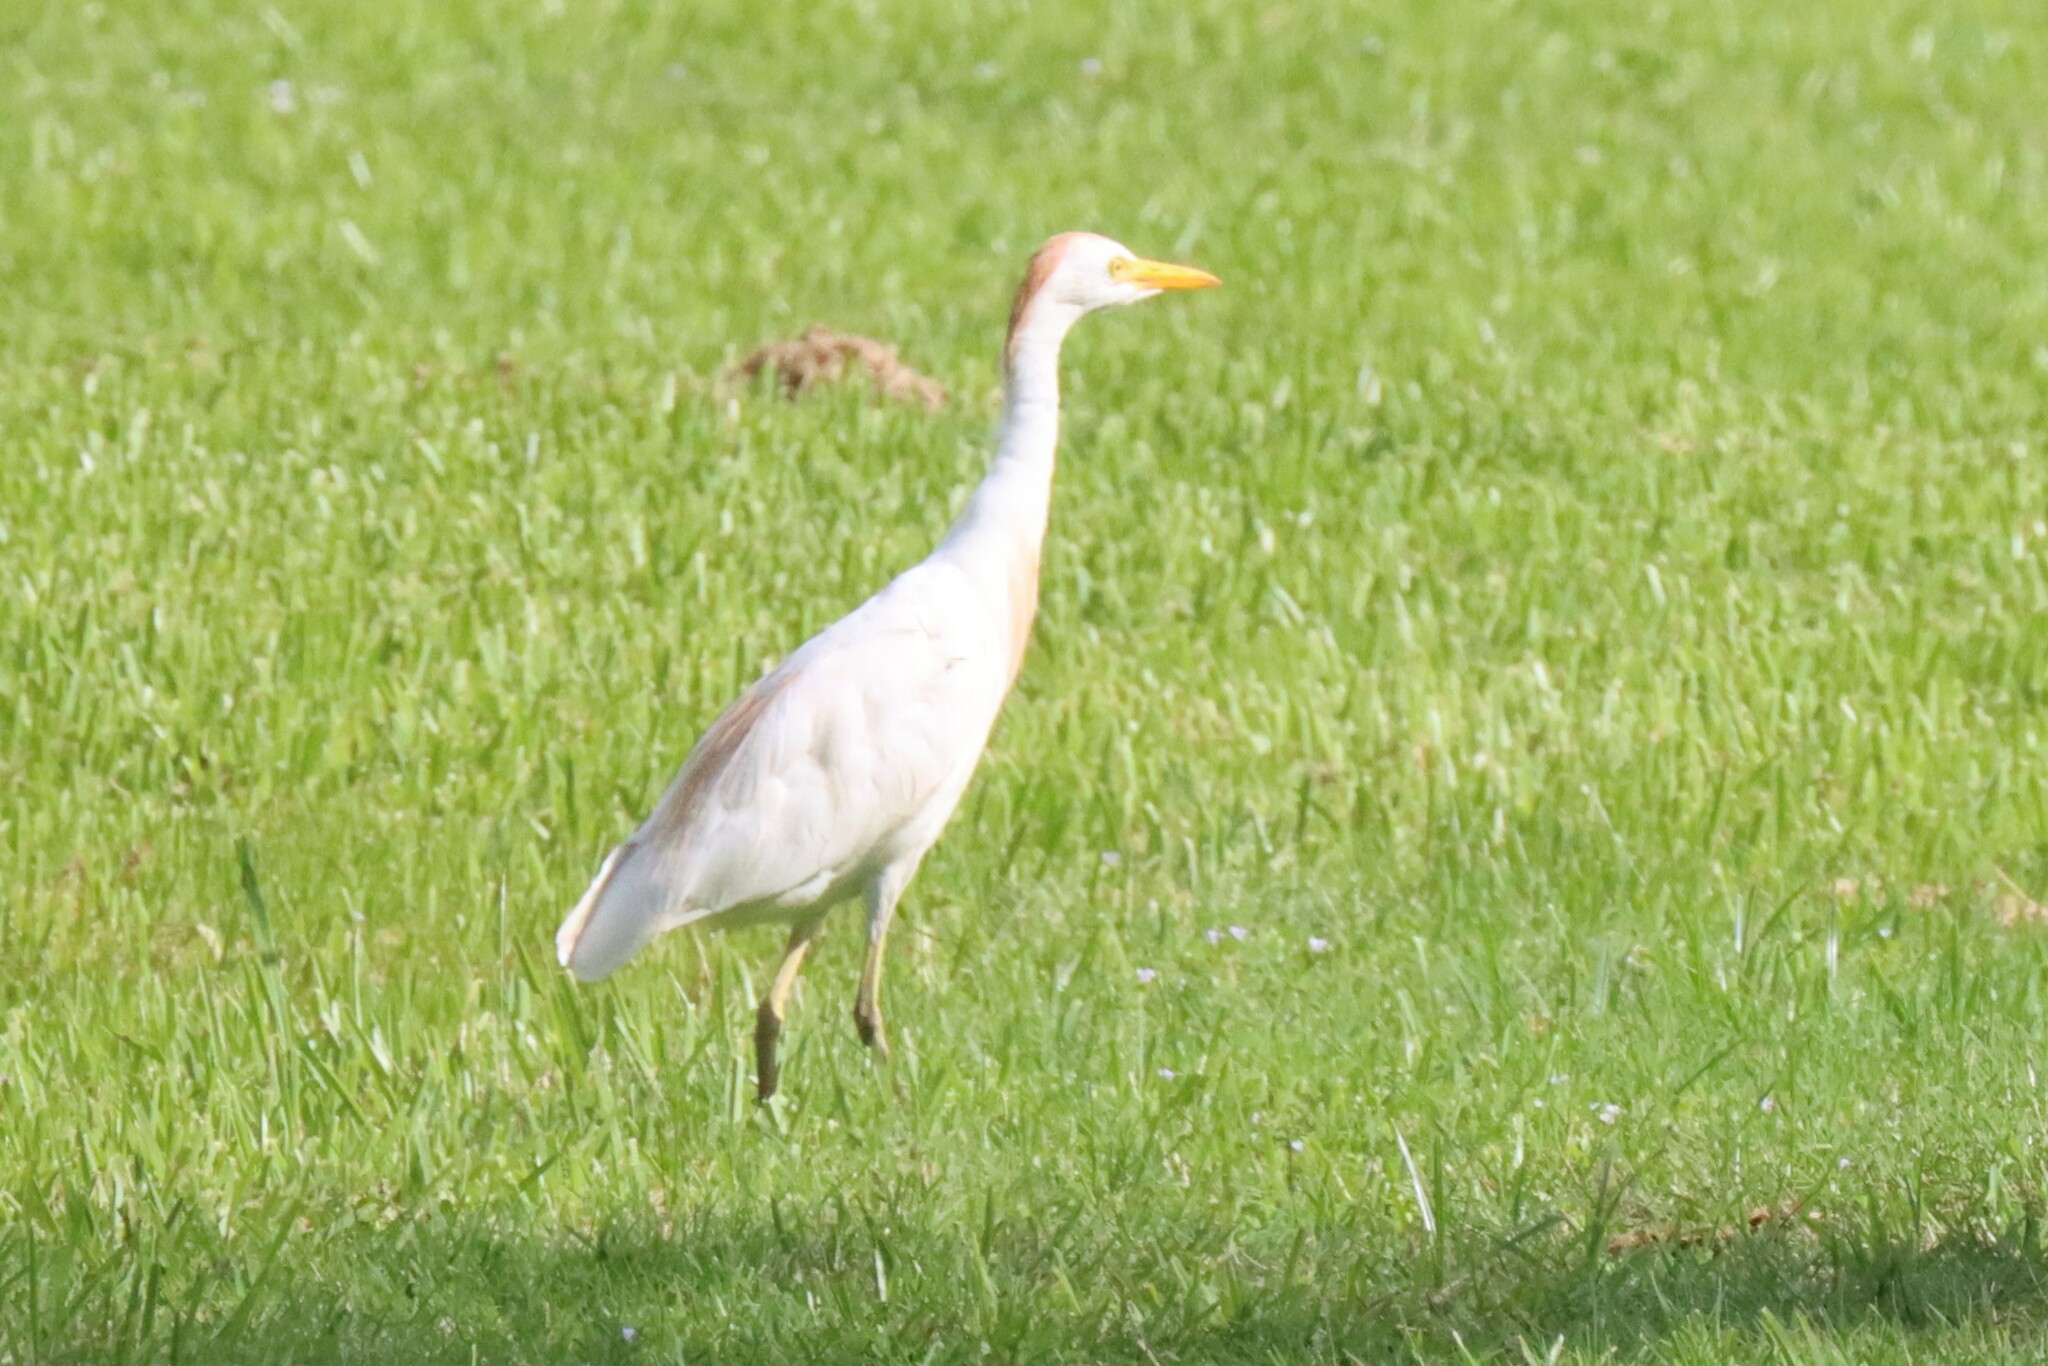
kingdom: Animalia
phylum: Chordata
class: Aves
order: Pelecaniformes
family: Ardeidae
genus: Bubulcus
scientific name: Bubulcus ibis
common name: Cattle egret
